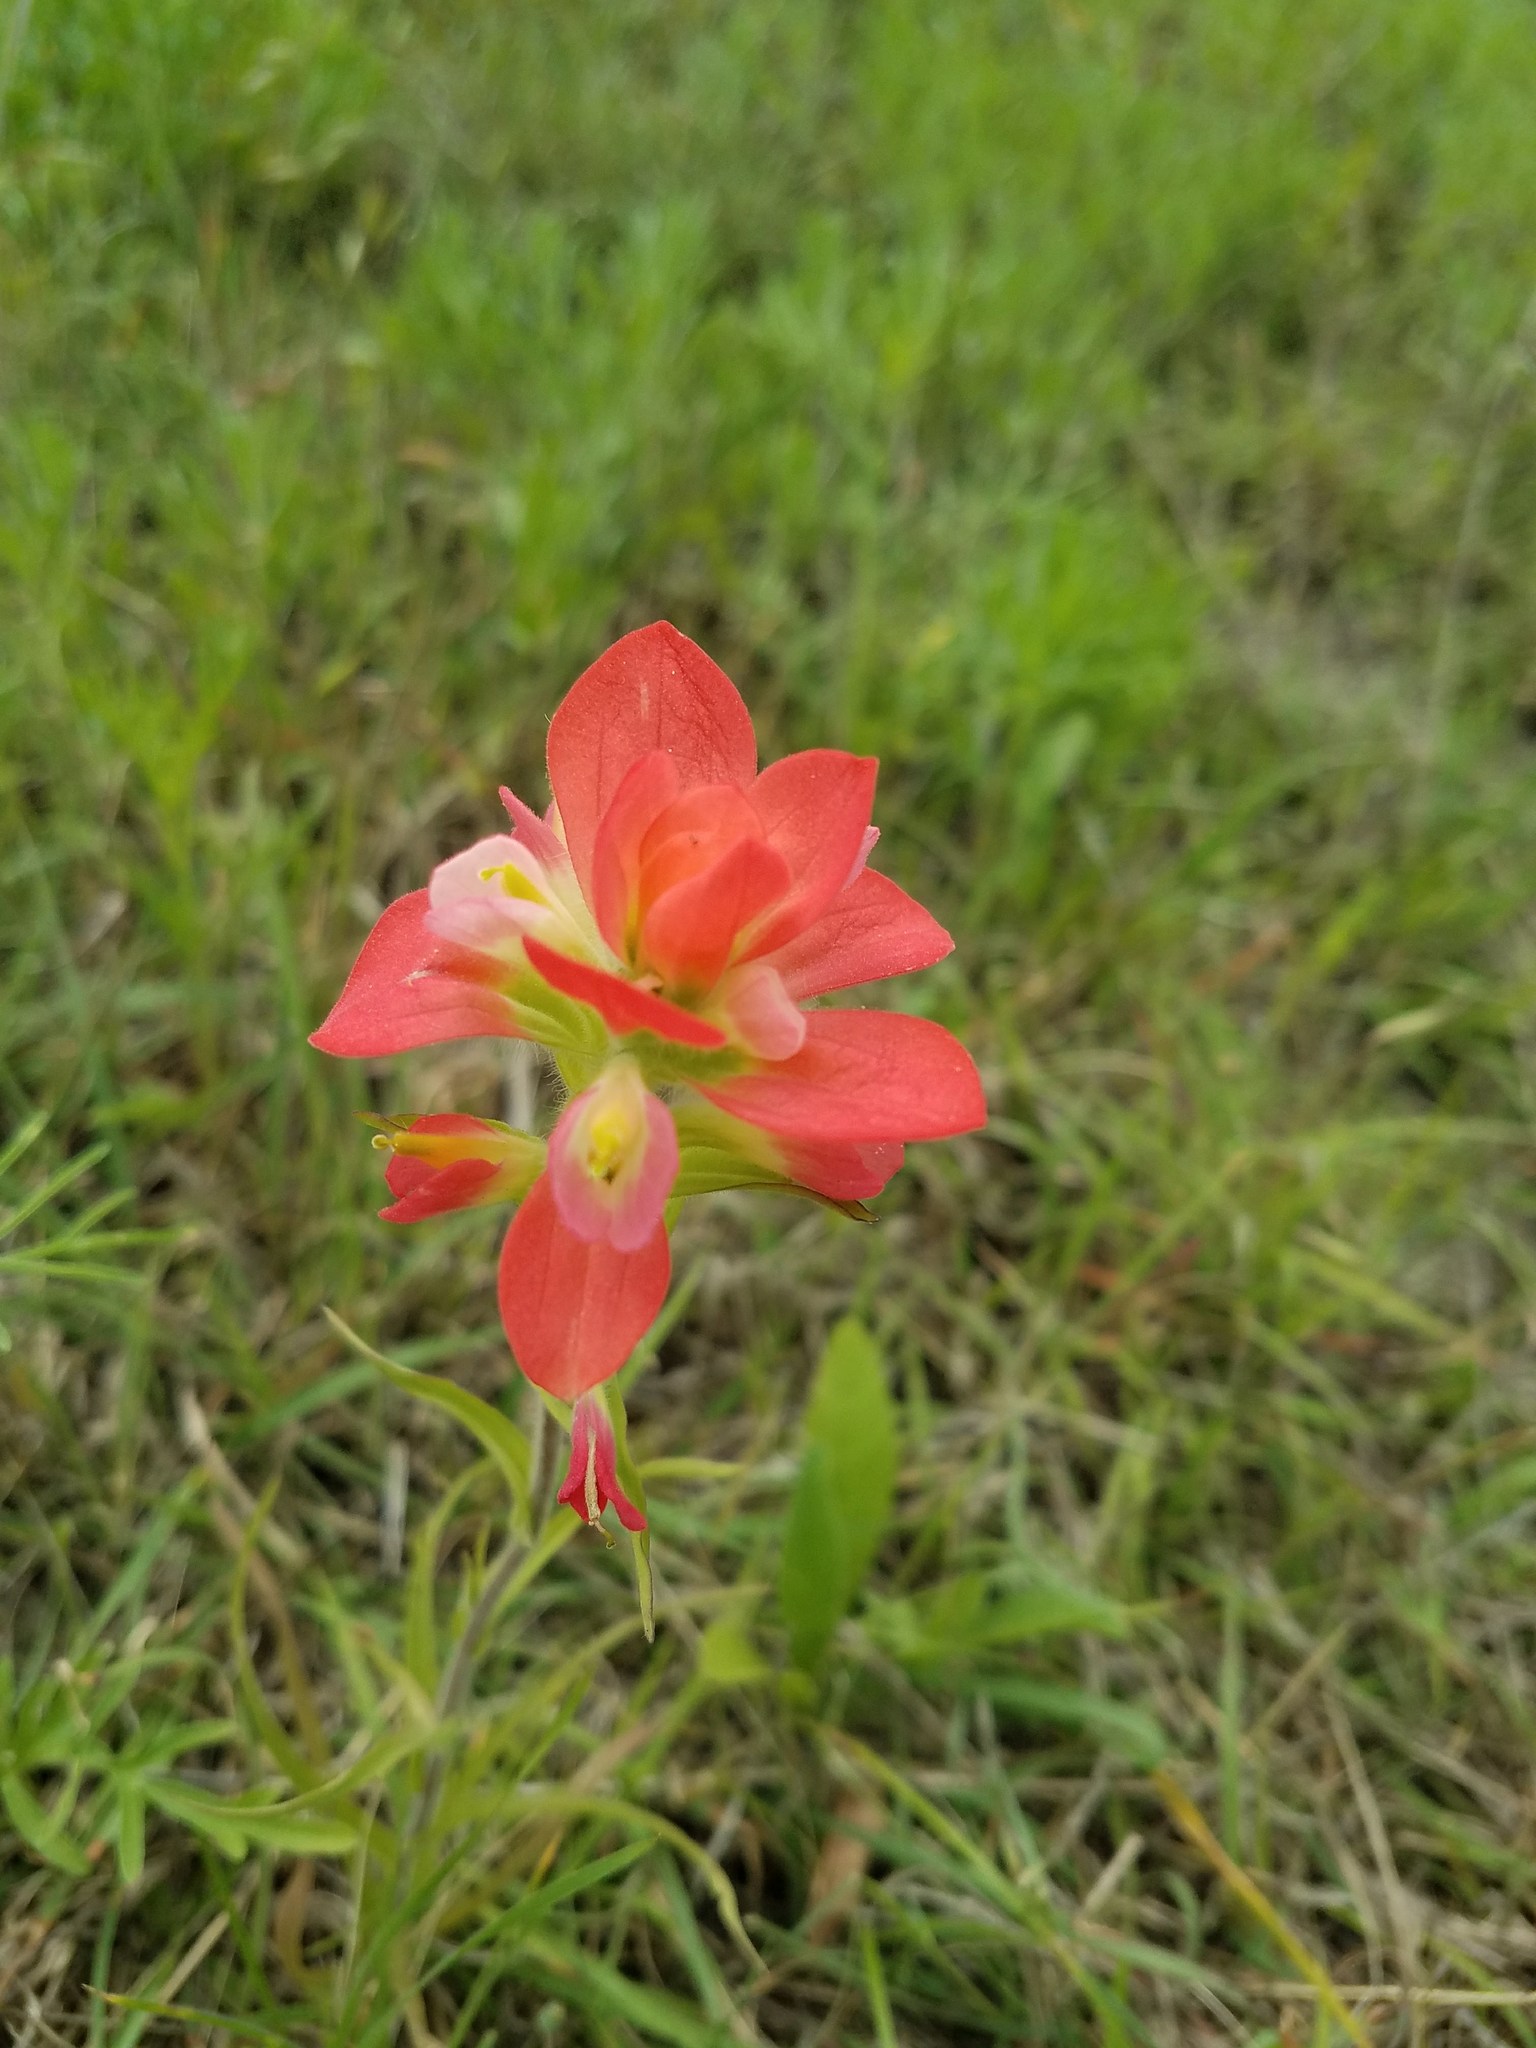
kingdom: Plantae
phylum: Tracheophyta
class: Magnoliopsida
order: Lamiales
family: Orobanchaceae
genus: Castilleja
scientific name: Castilleja indivisa
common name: Texas paintbrush
